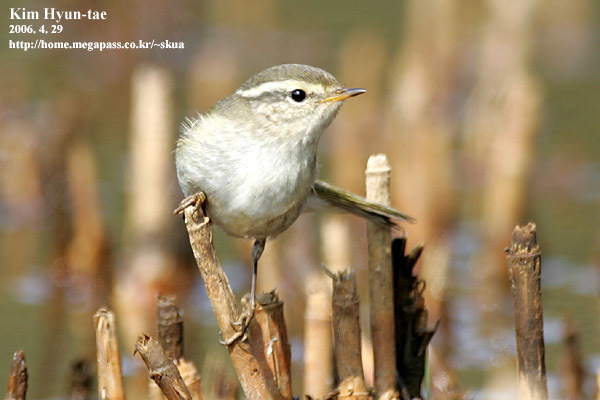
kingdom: Animalia
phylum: Chordata
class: Aves
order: Passeriformes
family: Phylloscopidae
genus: Phylloscopus
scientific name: Phylloscopus inornatus
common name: Yellow-browed warbler
